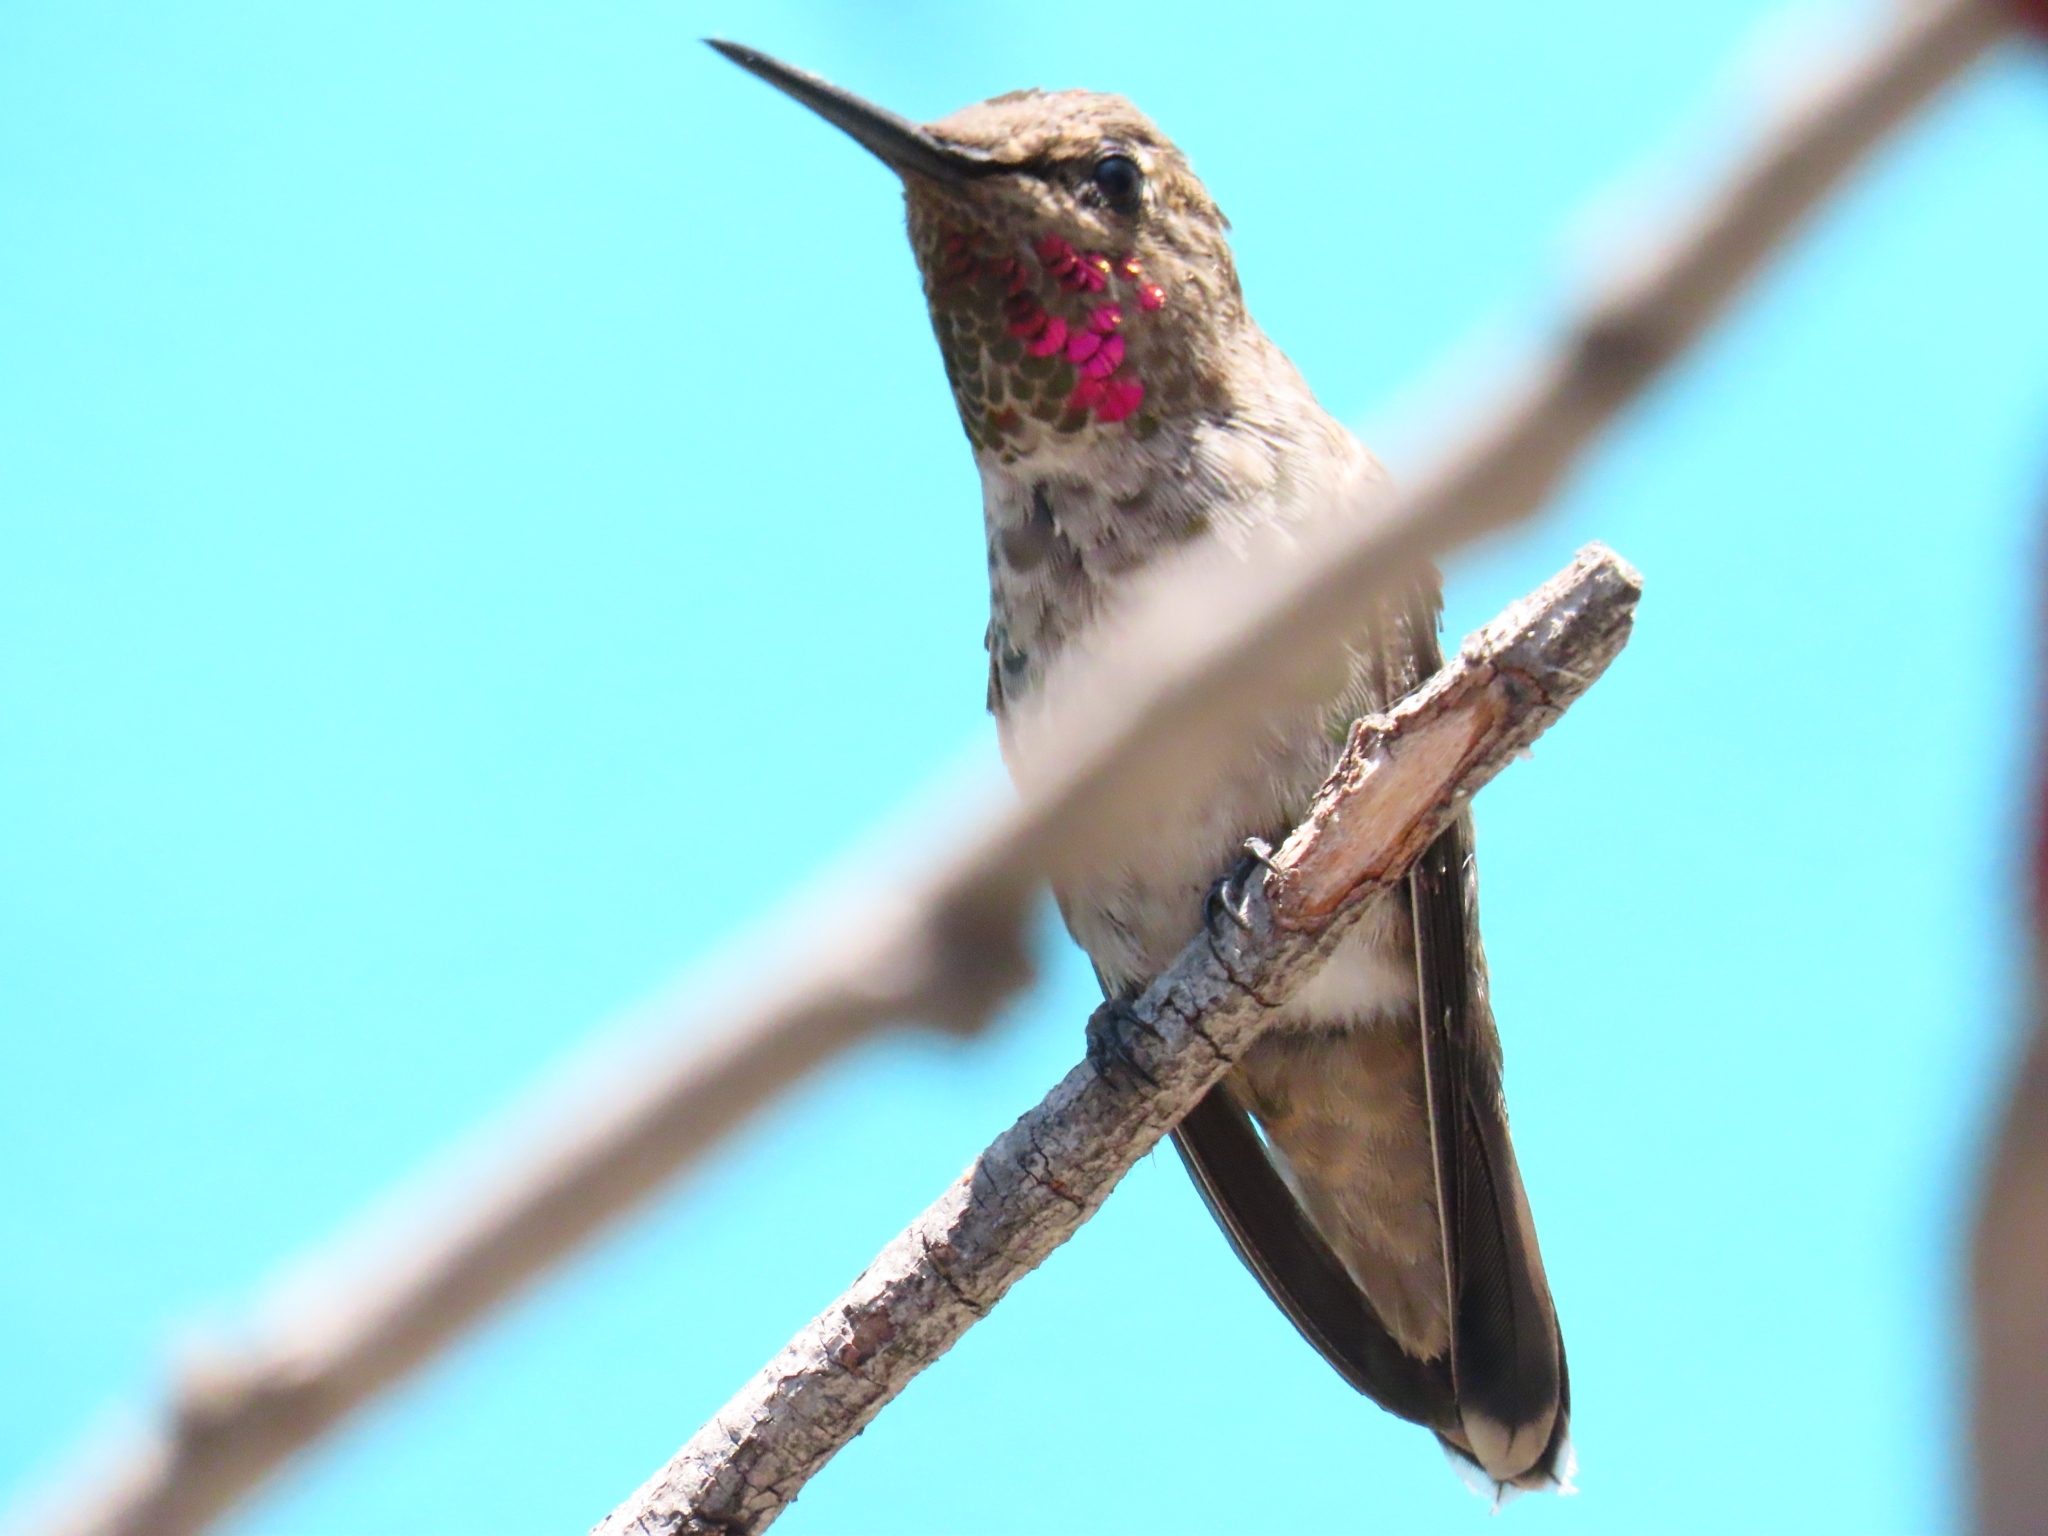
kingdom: Animalia
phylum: Chordata
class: Aves
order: Apodiformes
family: Trochilidae
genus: Calypte
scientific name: Calypte anna
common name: Anna's hummingbird
